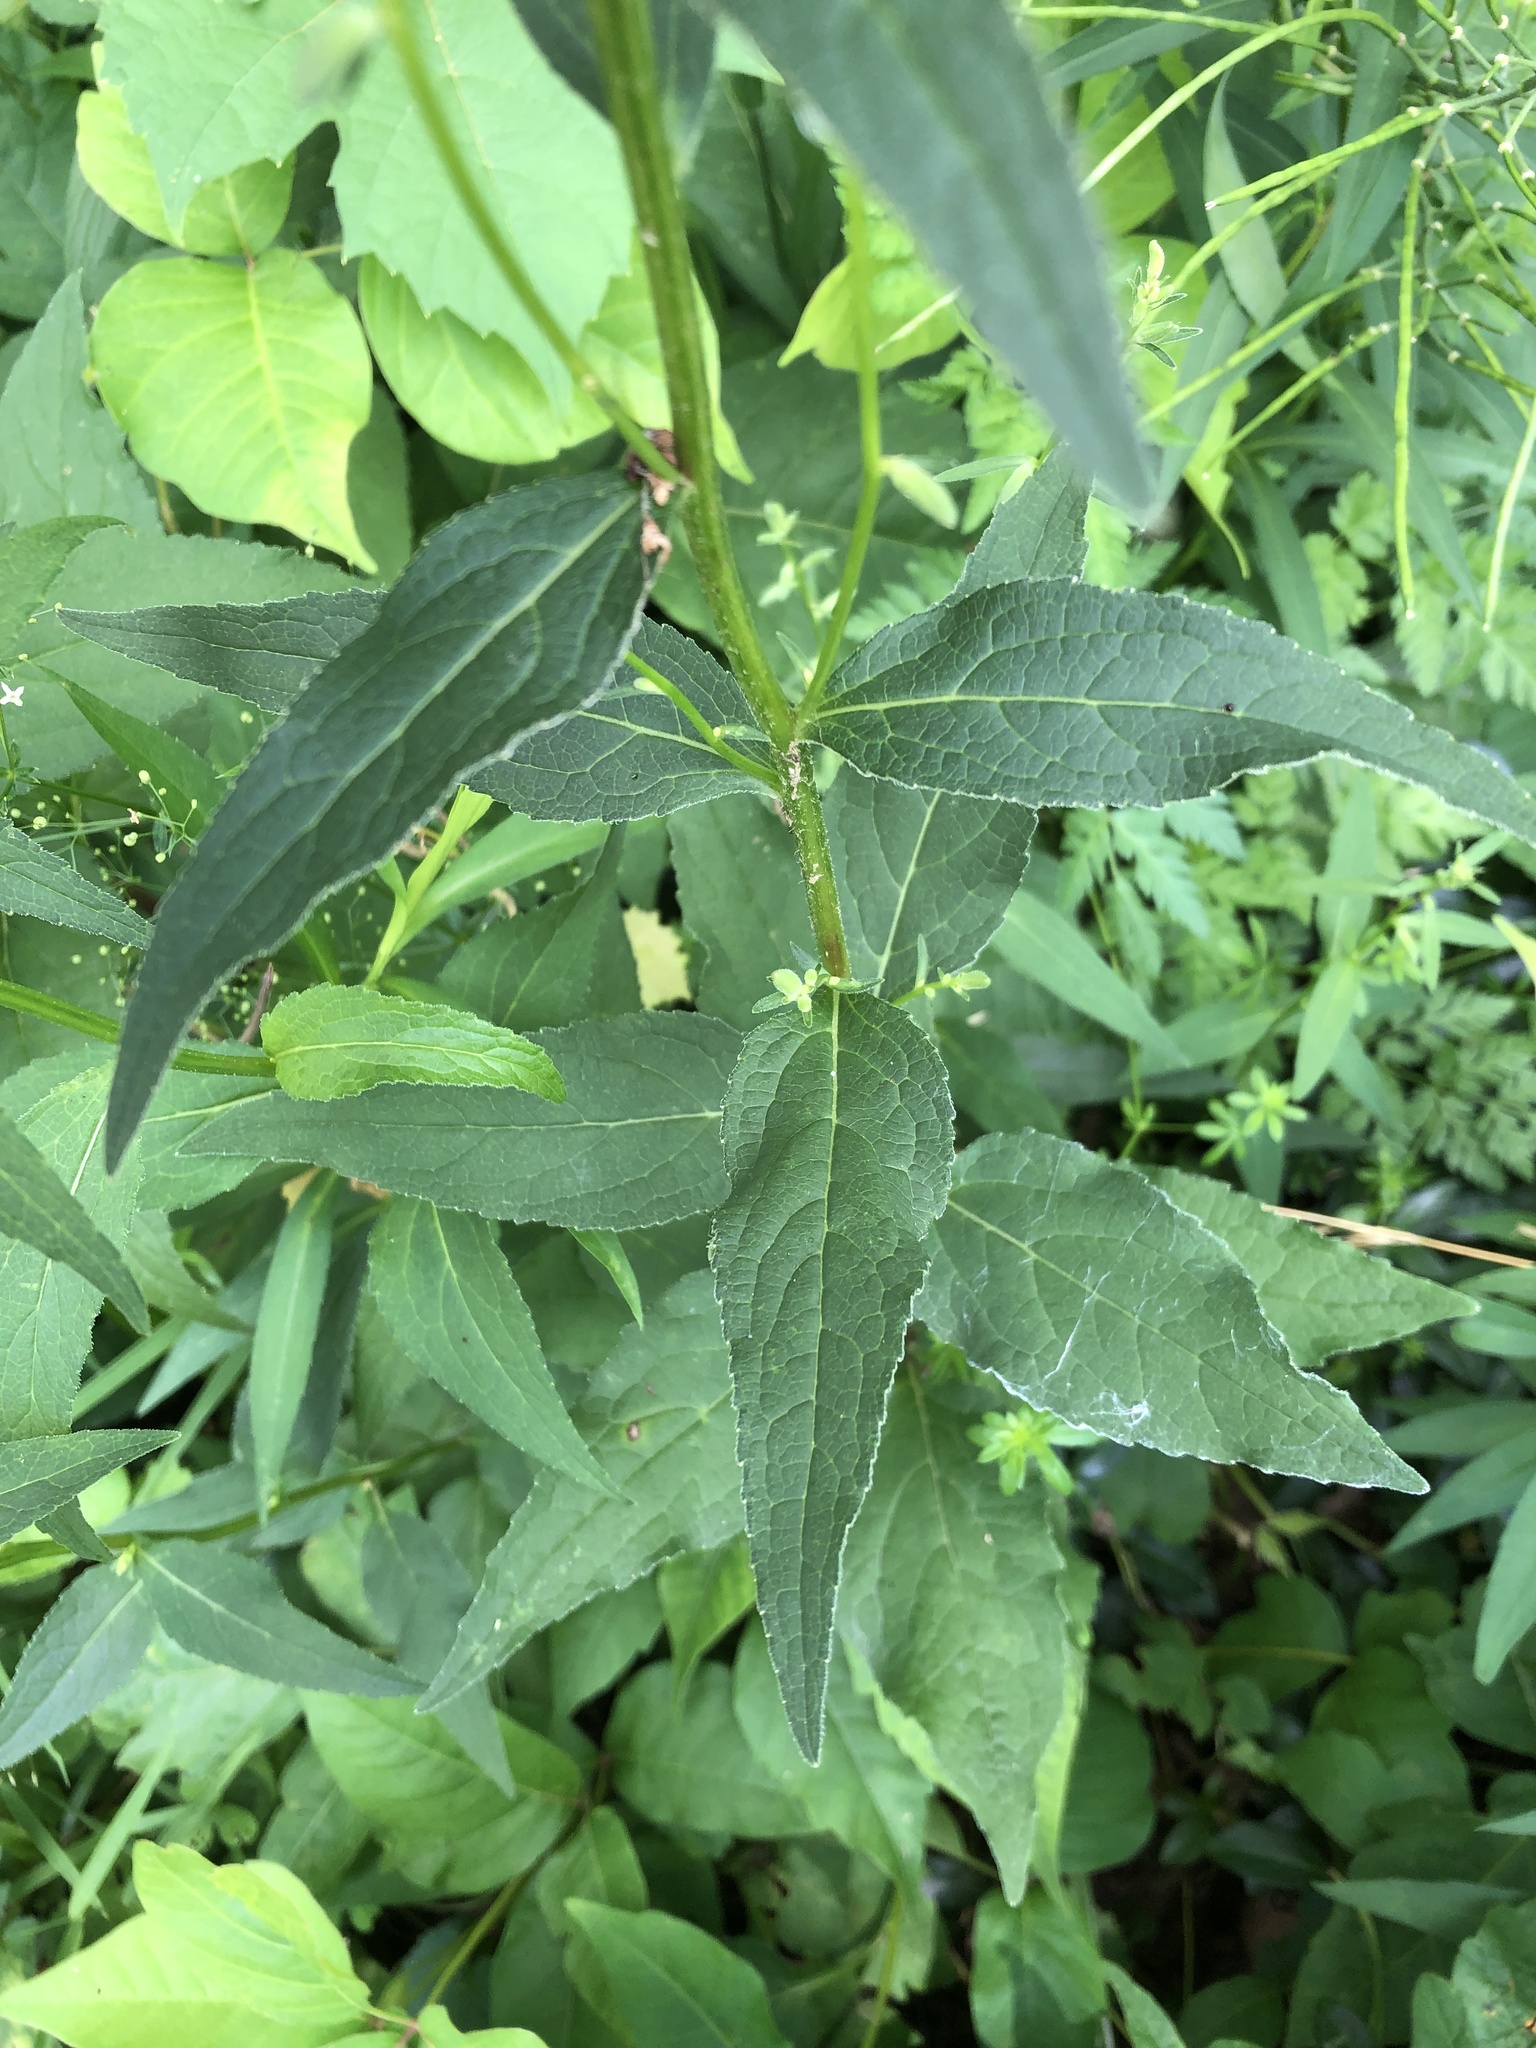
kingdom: Plantae
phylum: Tracheophyta
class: Magnoliopsida
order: Asterales
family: Campanulaceae
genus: Campanula
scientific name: Campanula rapunculoides
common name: Creeping bellflower
